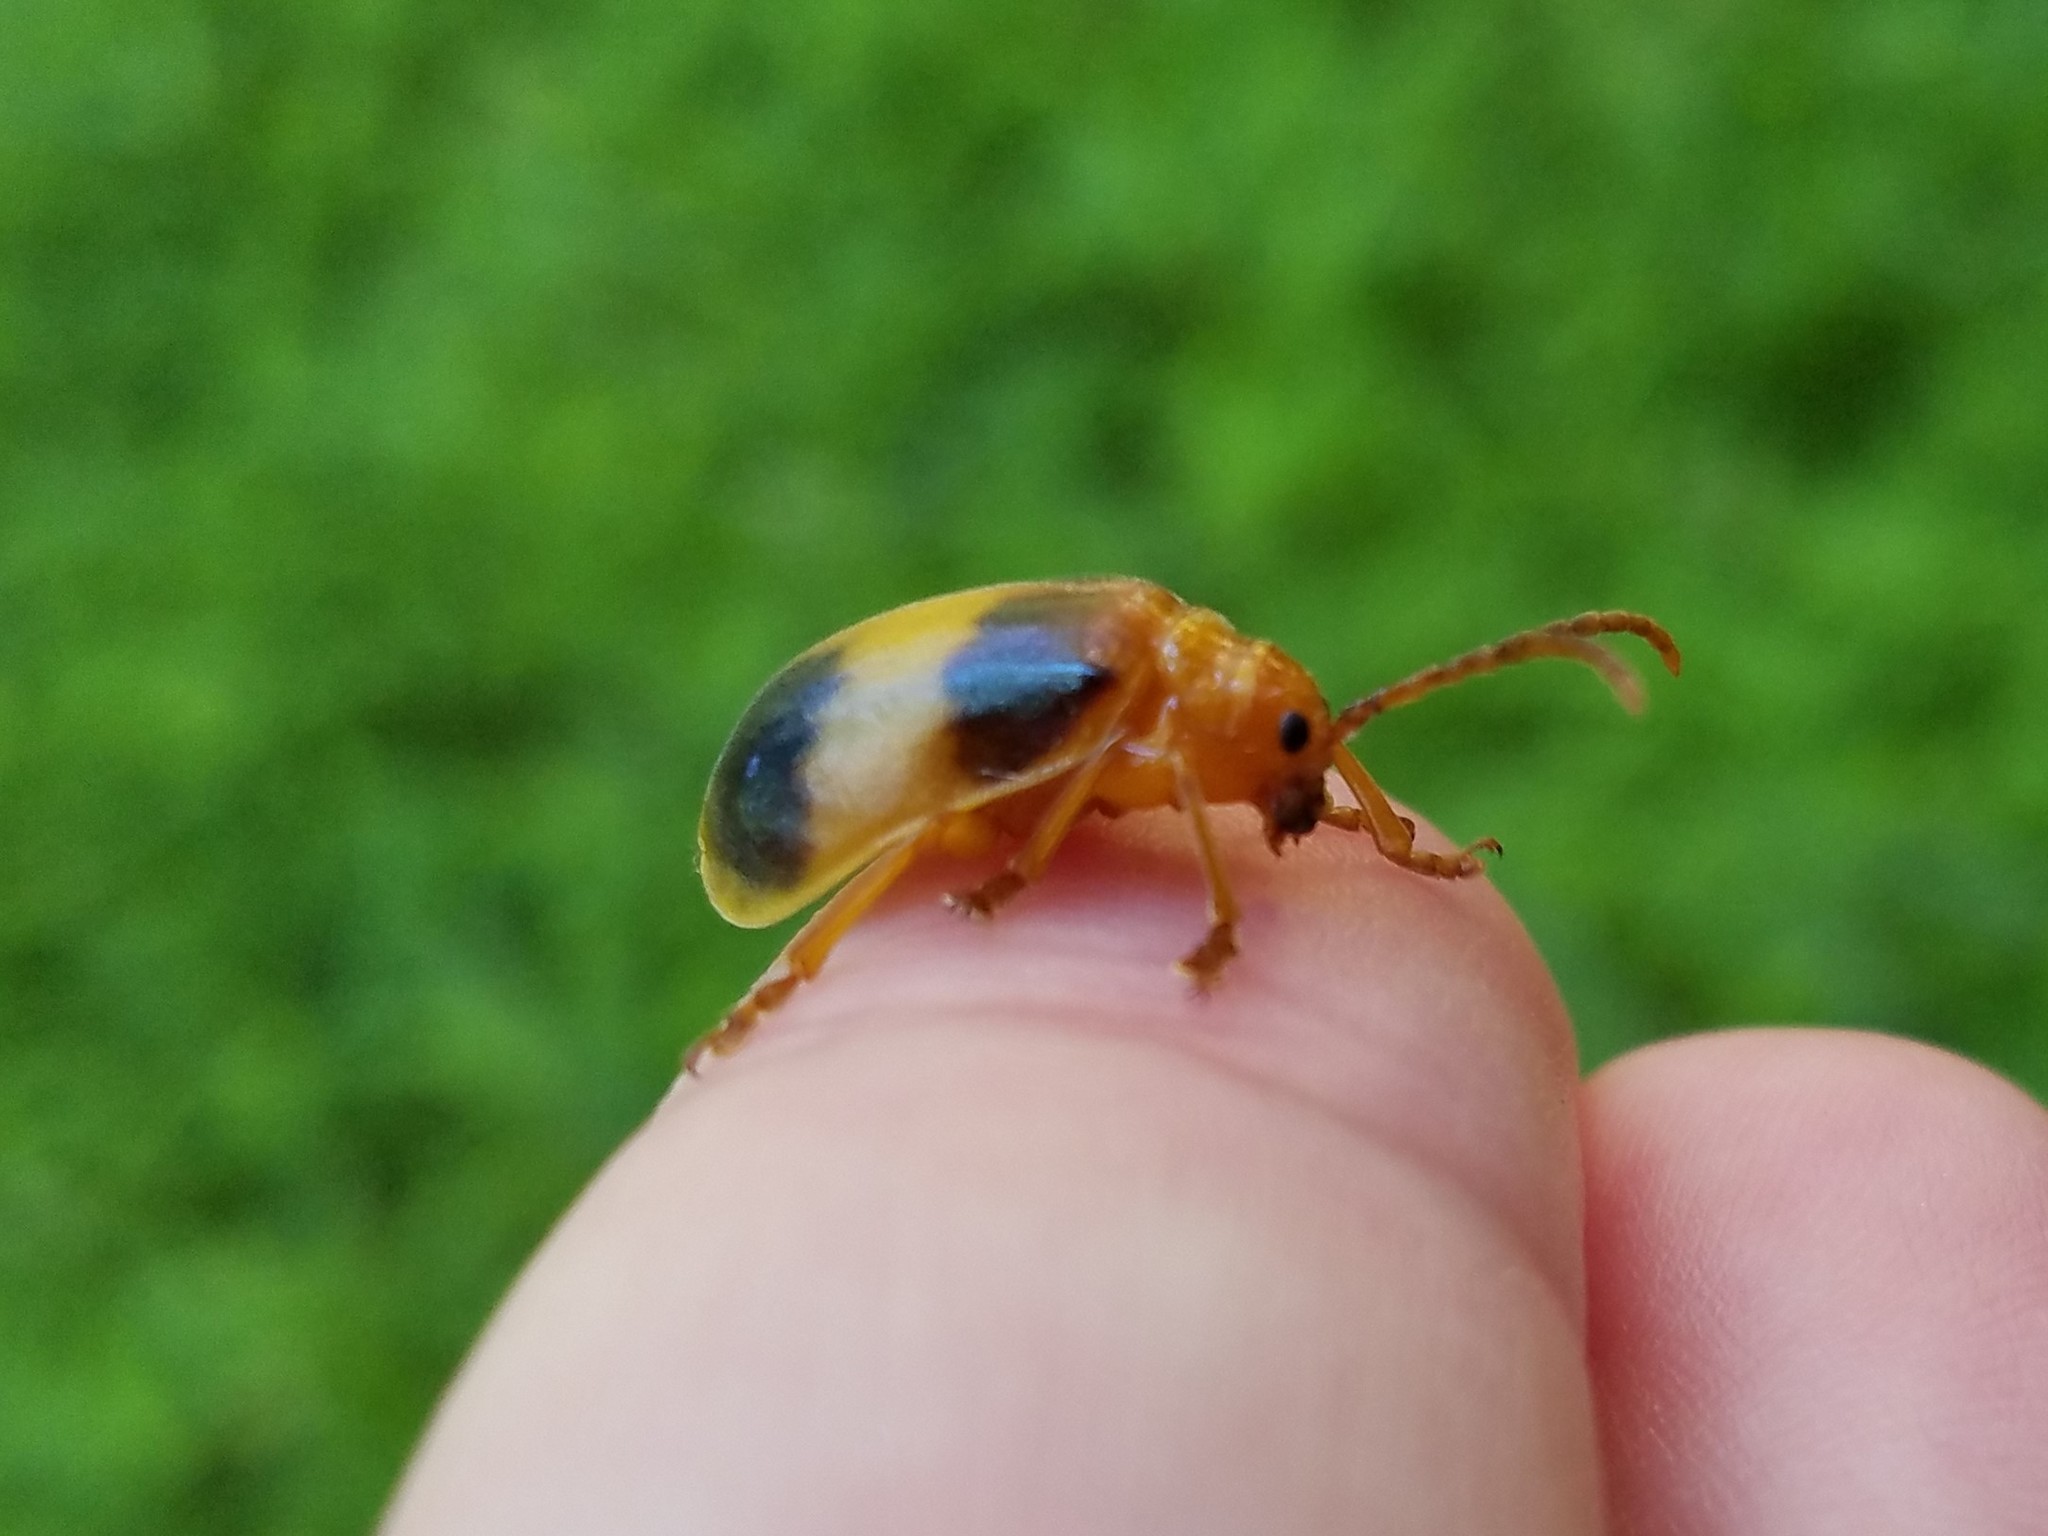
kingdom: Animalia
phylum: Arthropoda
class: Insecta
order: Coleoptera
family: Chrysomelidae
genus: Monocesta
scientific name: Monocesta coryli
